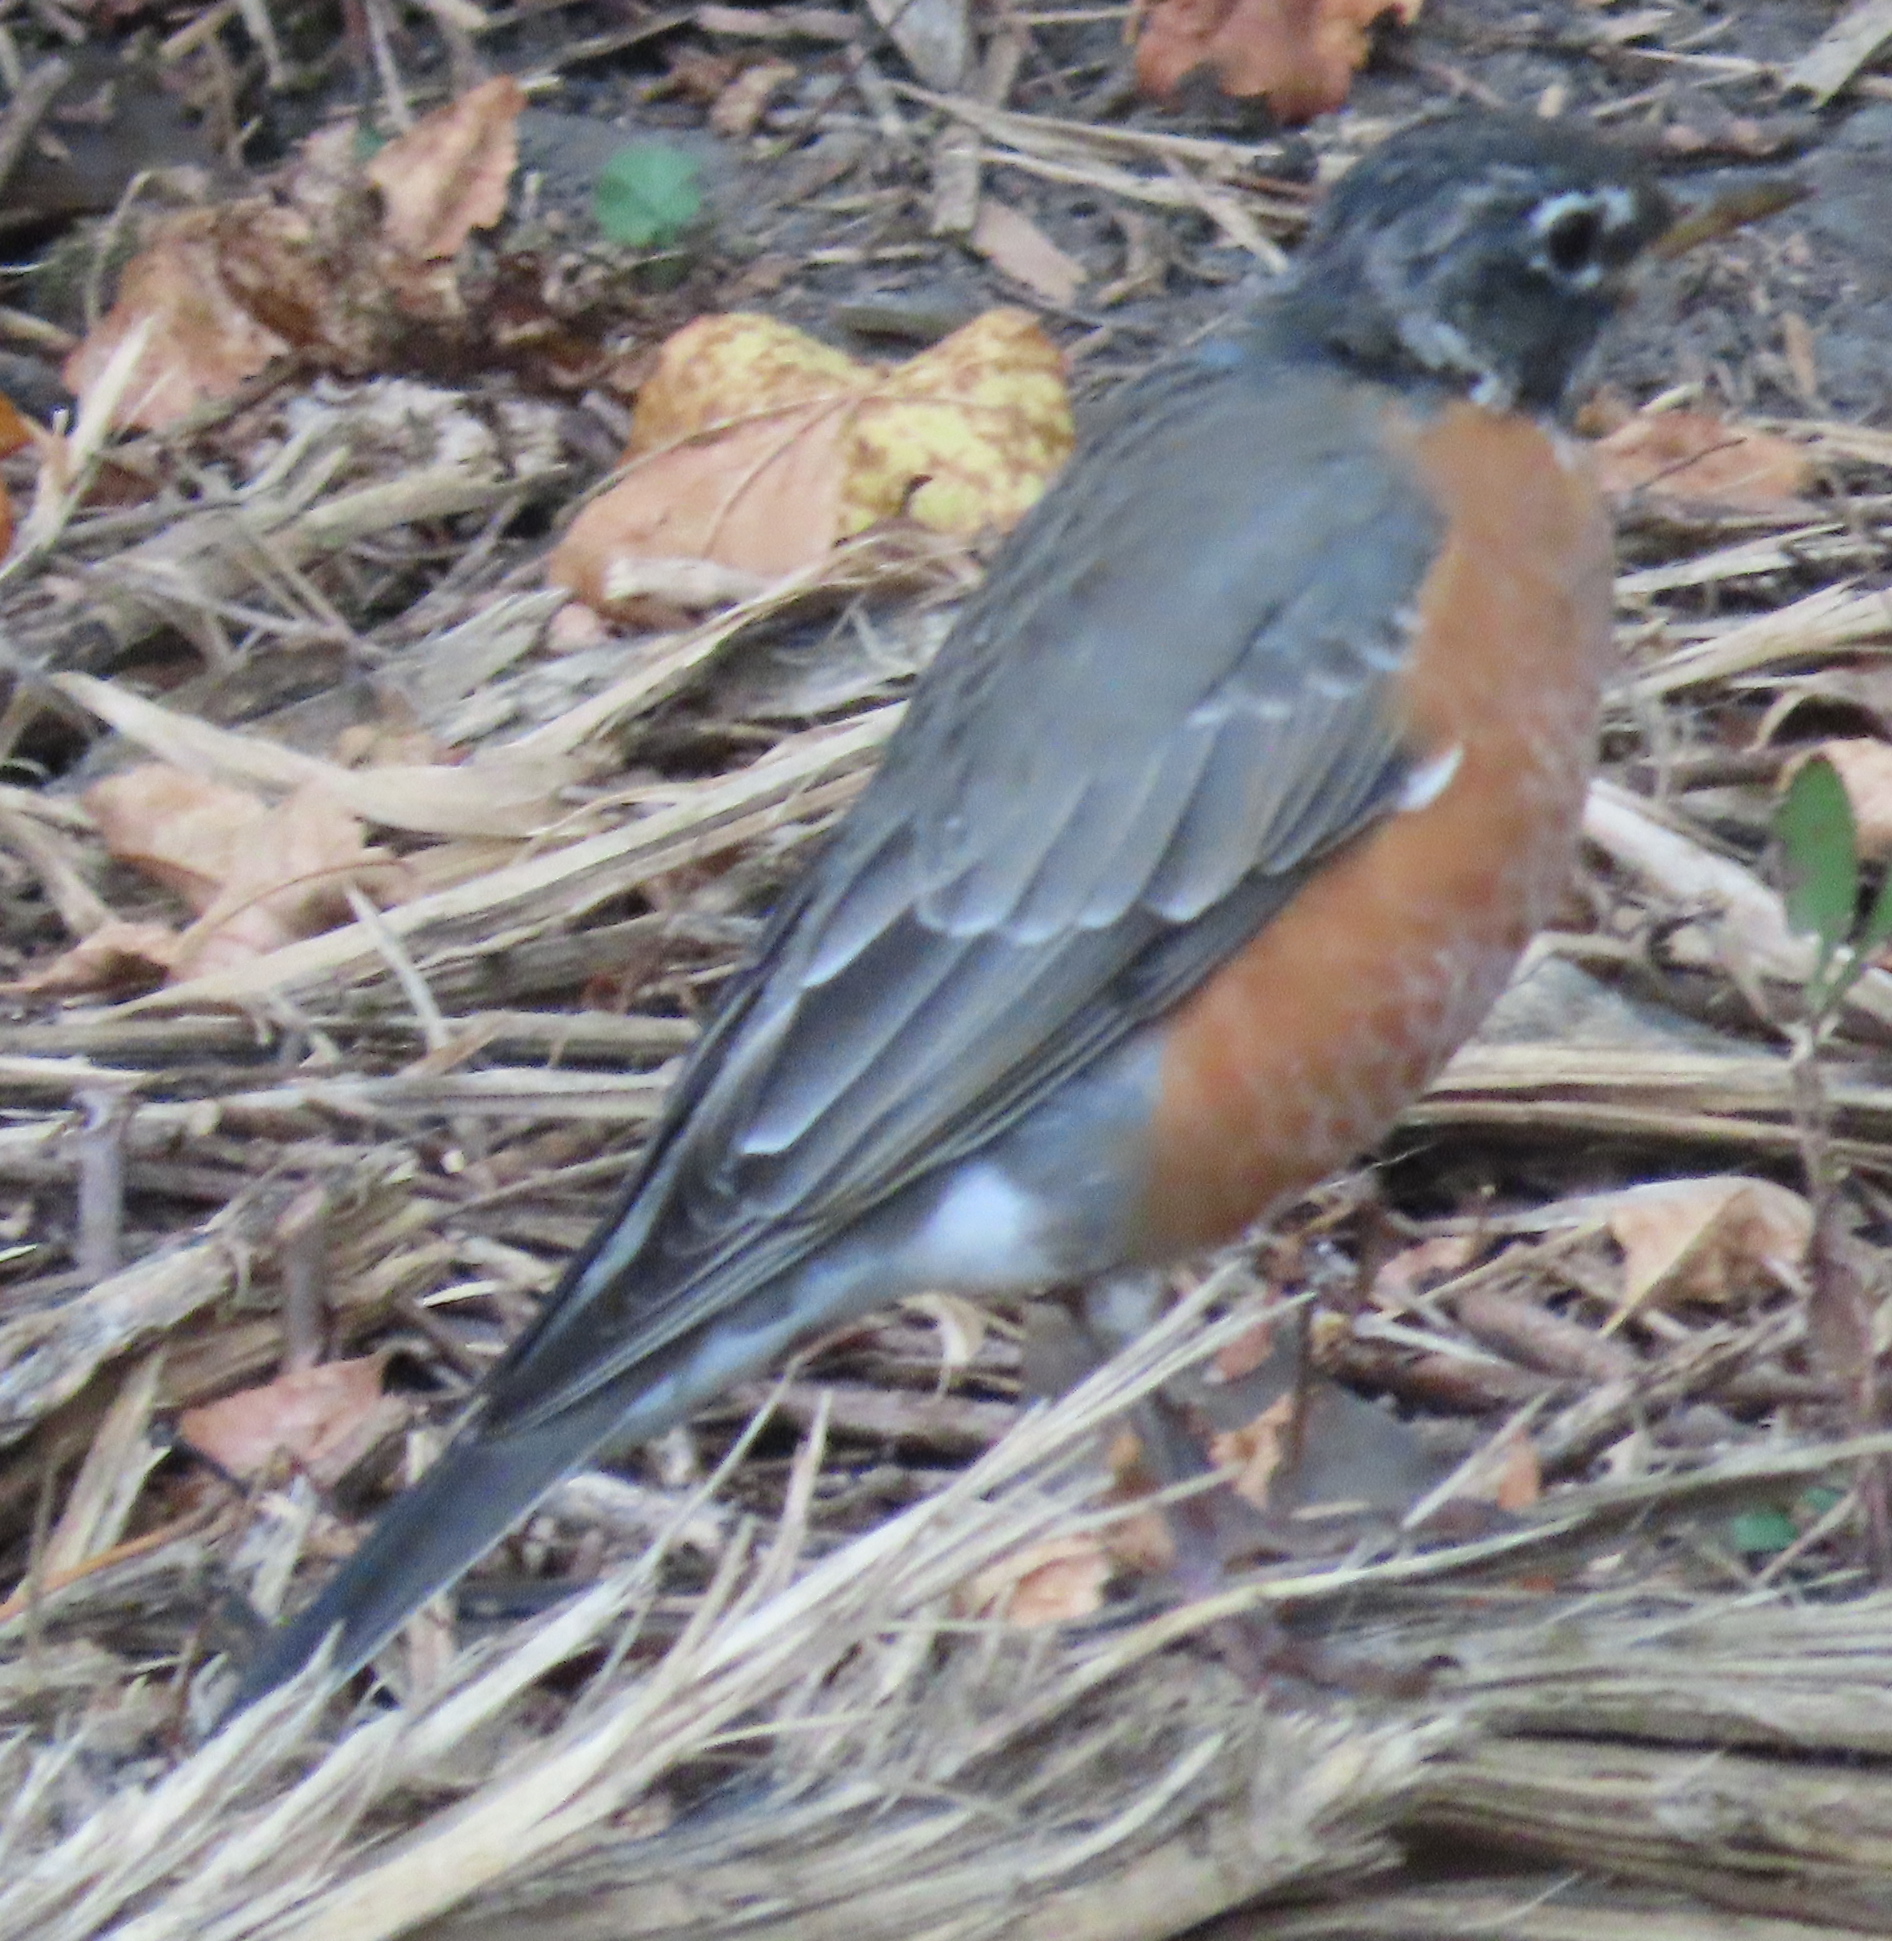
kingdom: Animalia
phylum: Chordata
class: Aves
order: Passeriformes
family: Turdidae
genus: Turdus
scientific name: Turdus migratorius
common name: American robin
